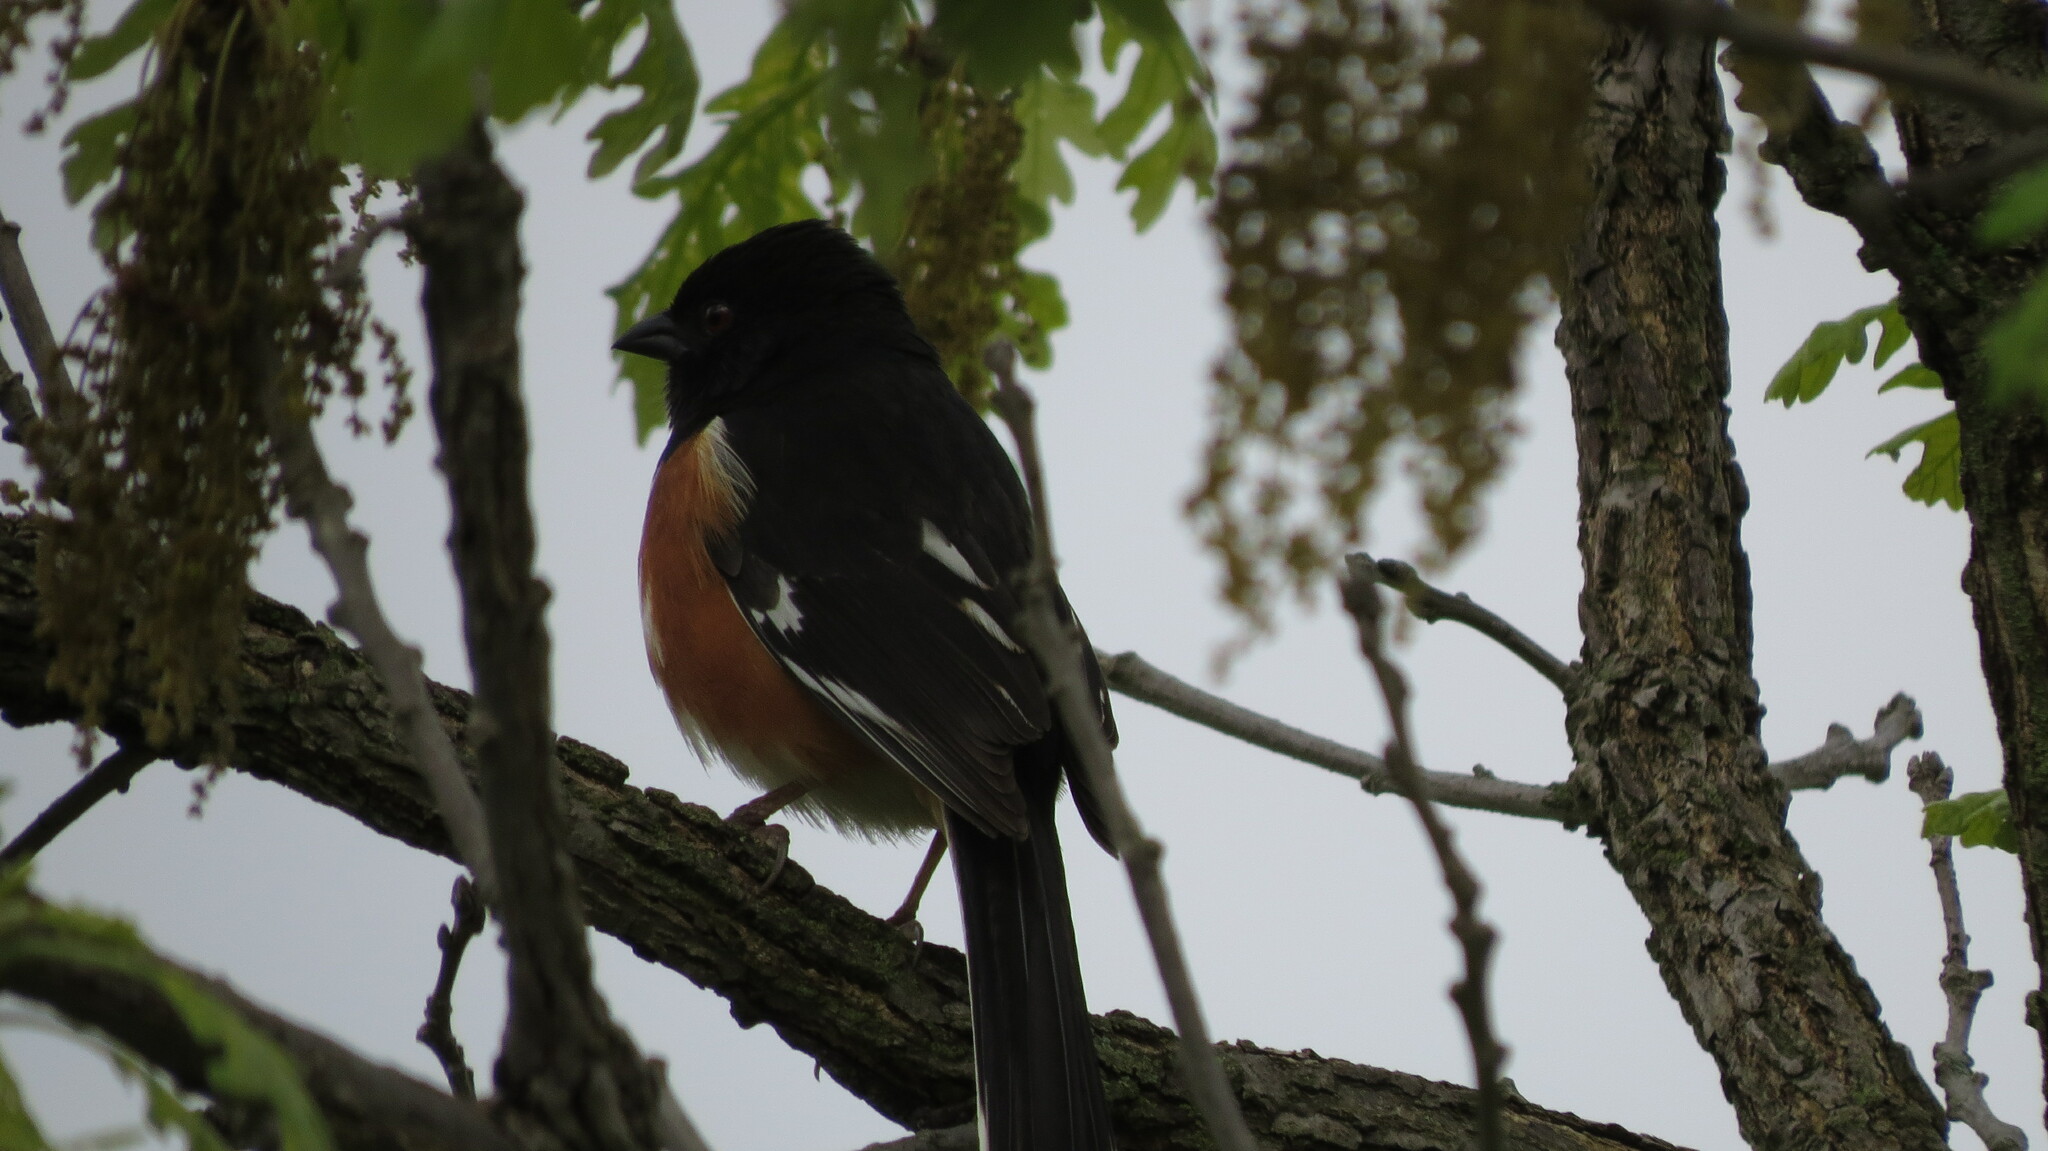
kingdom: Animalia
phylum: Chordata
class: Aves
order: Passeriformes
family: Passerellidae
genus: Pipilo
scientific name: Pipilo erythrophthalmus
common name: Eastern towhee
